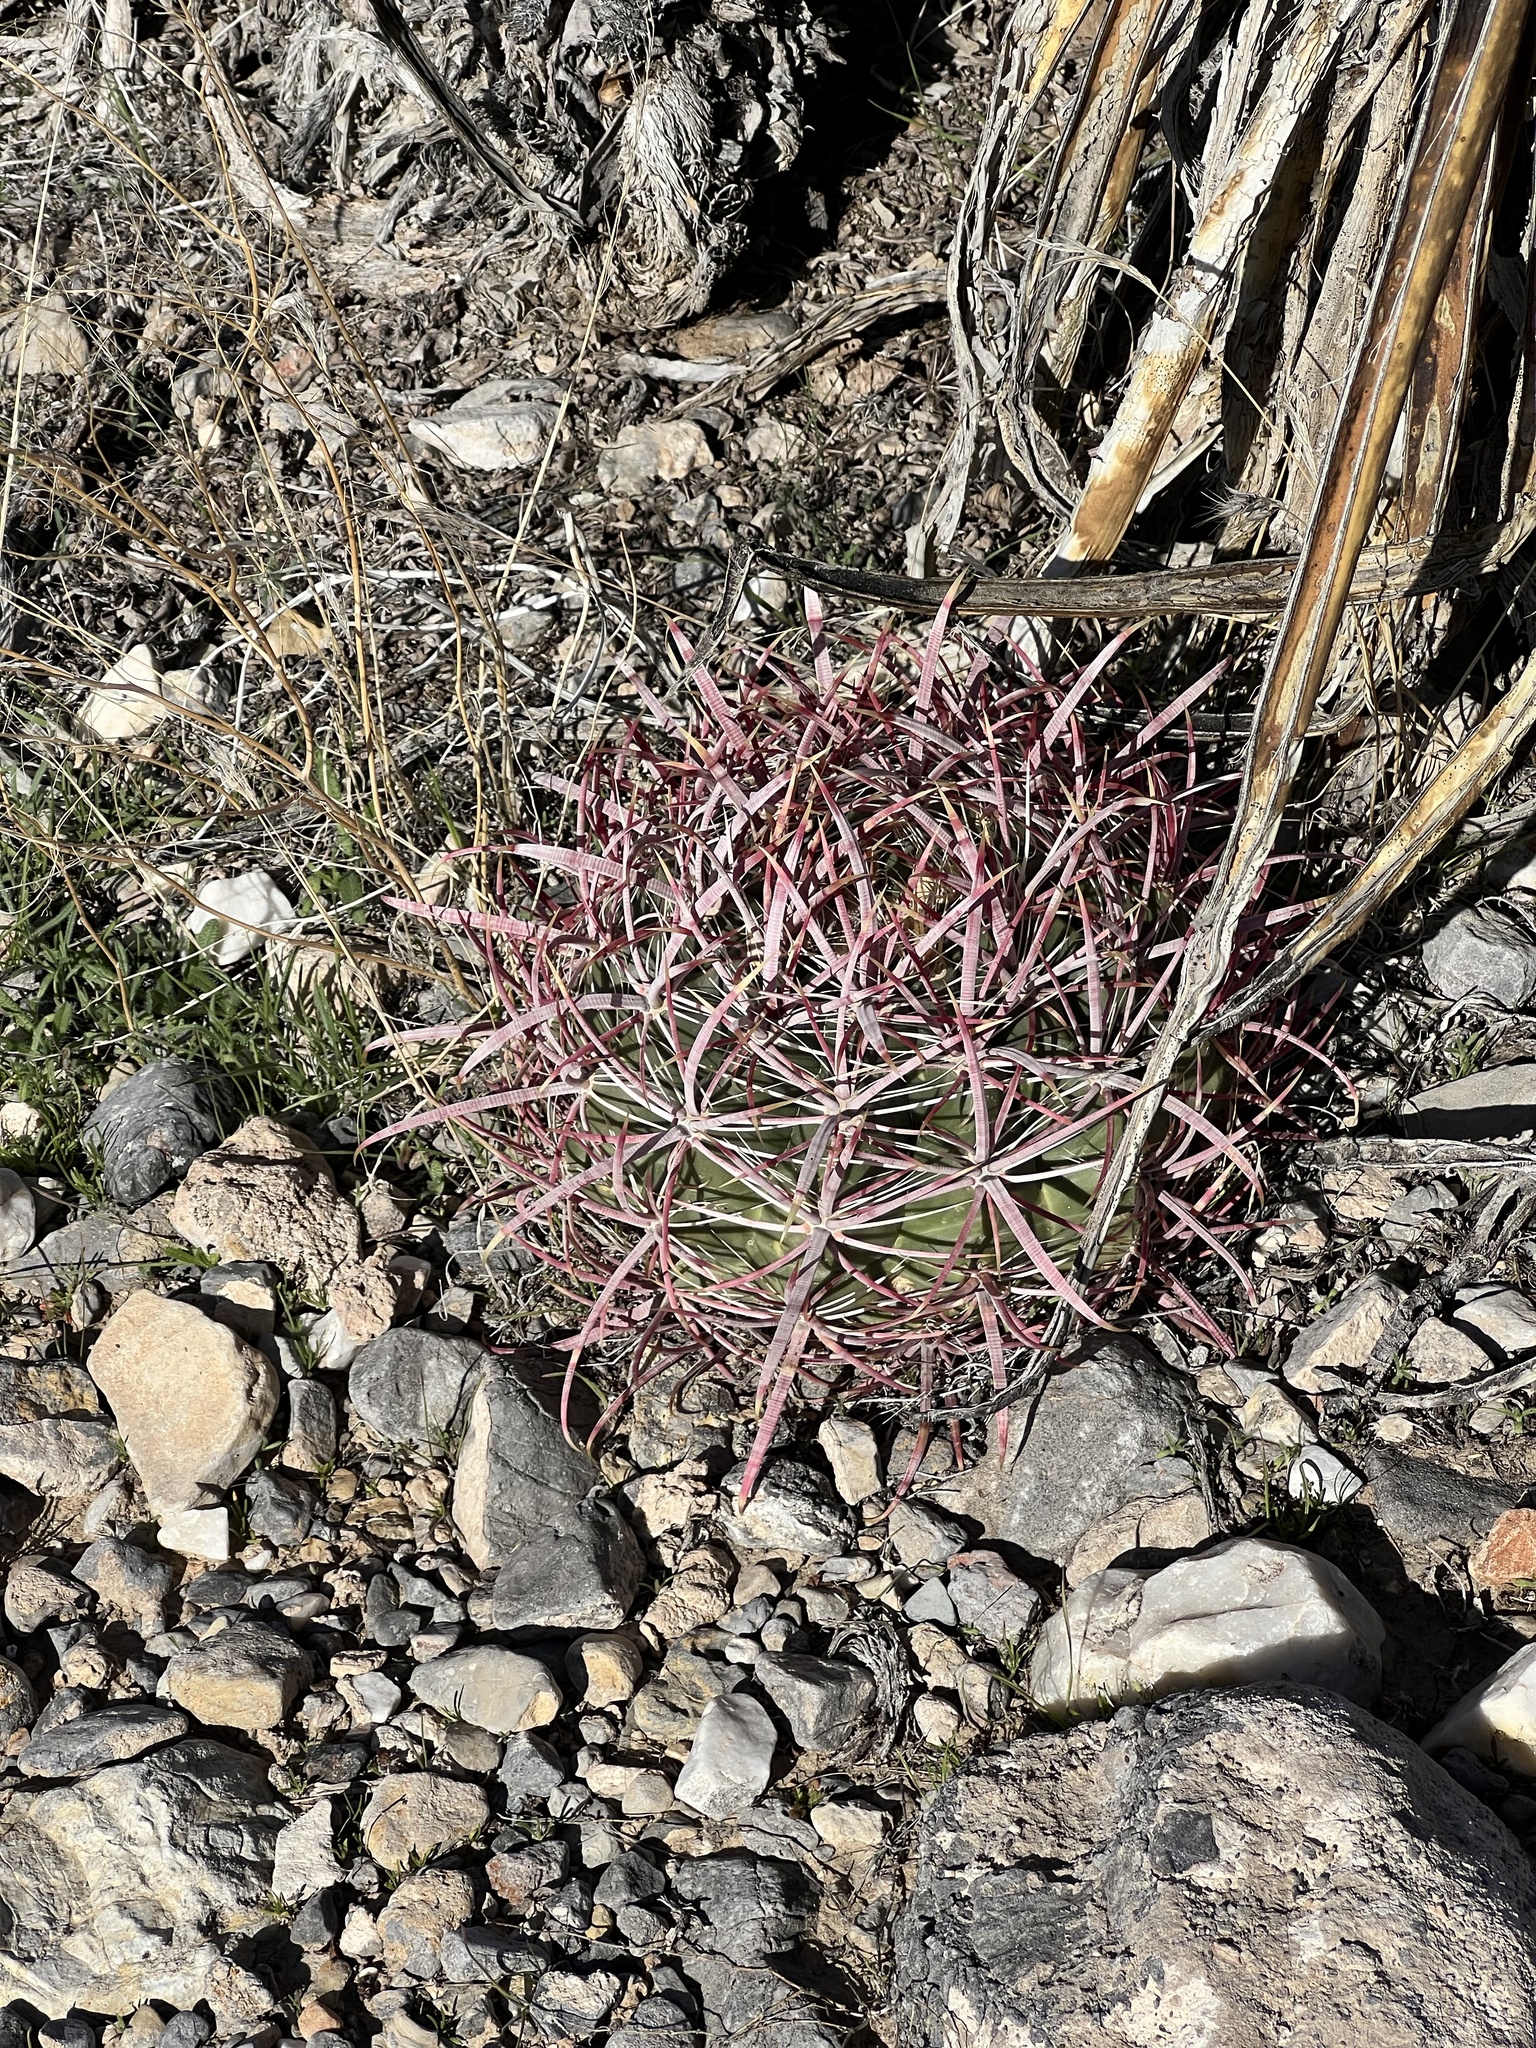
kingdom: Plantae
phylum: Tracheophyta
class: Magnoliopsida
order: Caryophyllales
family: Cactaceae
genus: Ferocactus
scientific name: Ferocactus cylindraceus
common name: California barrel cactus
